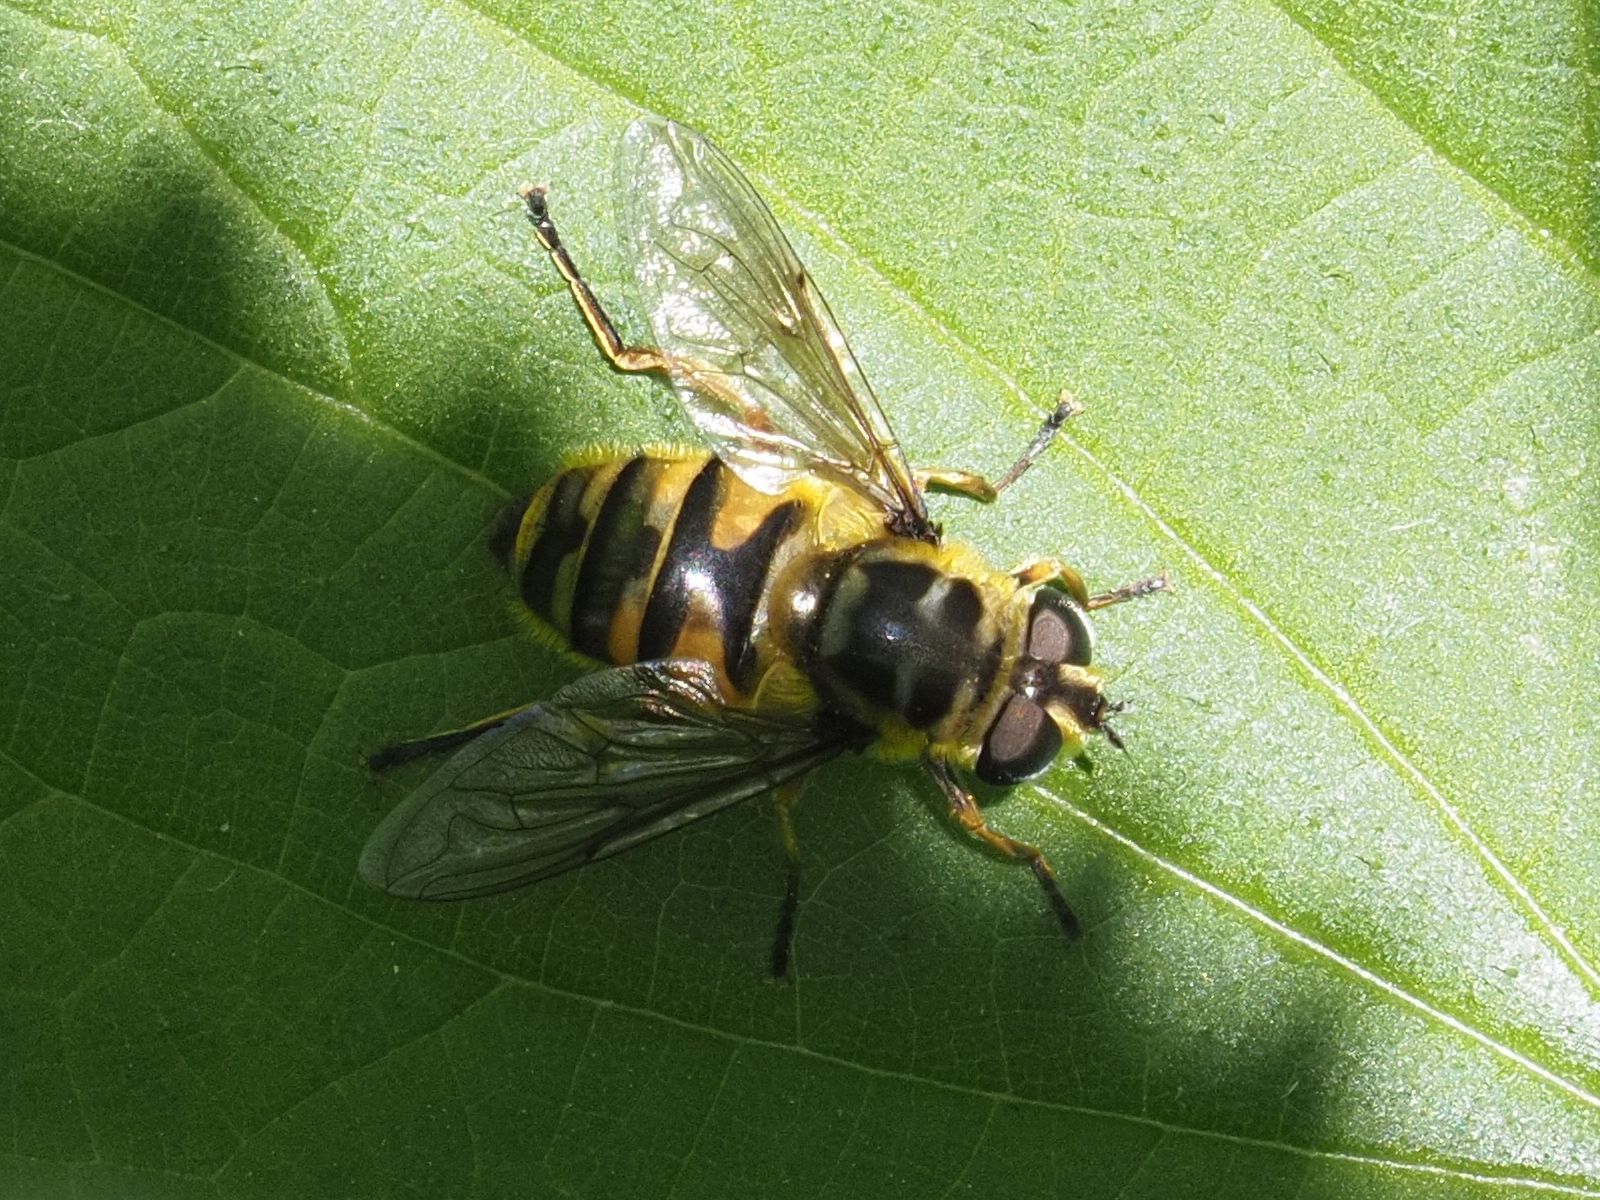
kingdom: Animalia
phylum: Arthropoda
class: Insecta
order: Diptera
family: Syrphidae
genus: Myathropa
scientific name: Myathropa florea
